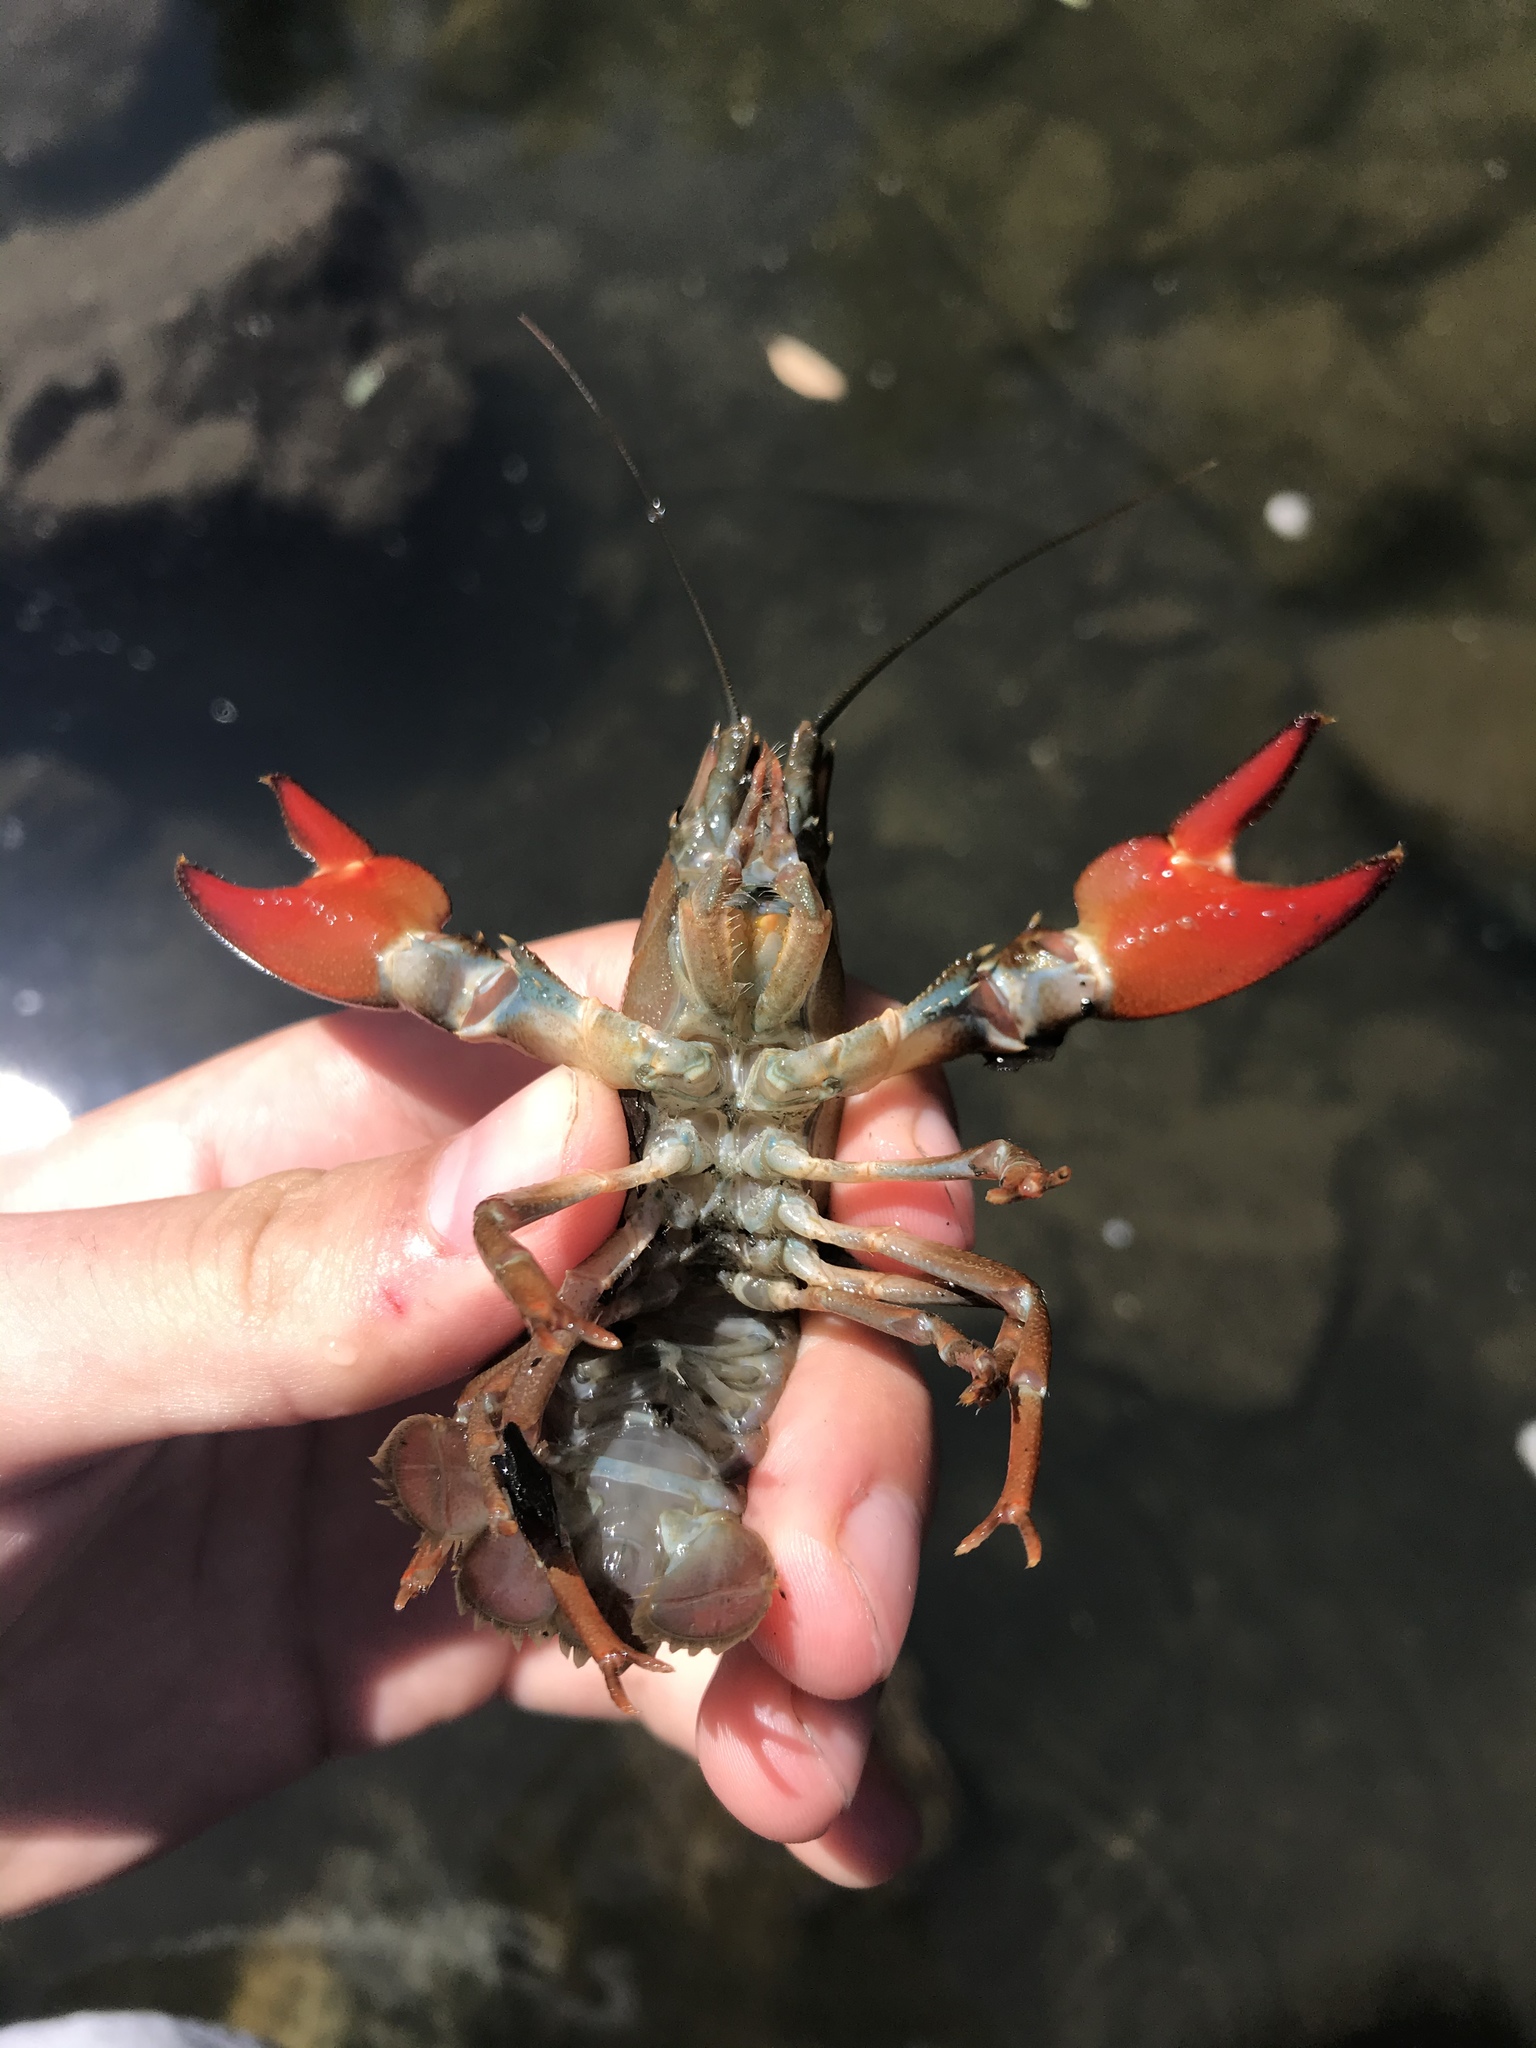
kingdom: Animalia
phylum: Arthropoda
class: Malacostraca
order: Decapoda
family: Astacidae
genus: Pacifastacus
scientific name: Pacifastacus leniusculus
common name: Signal crayfish
